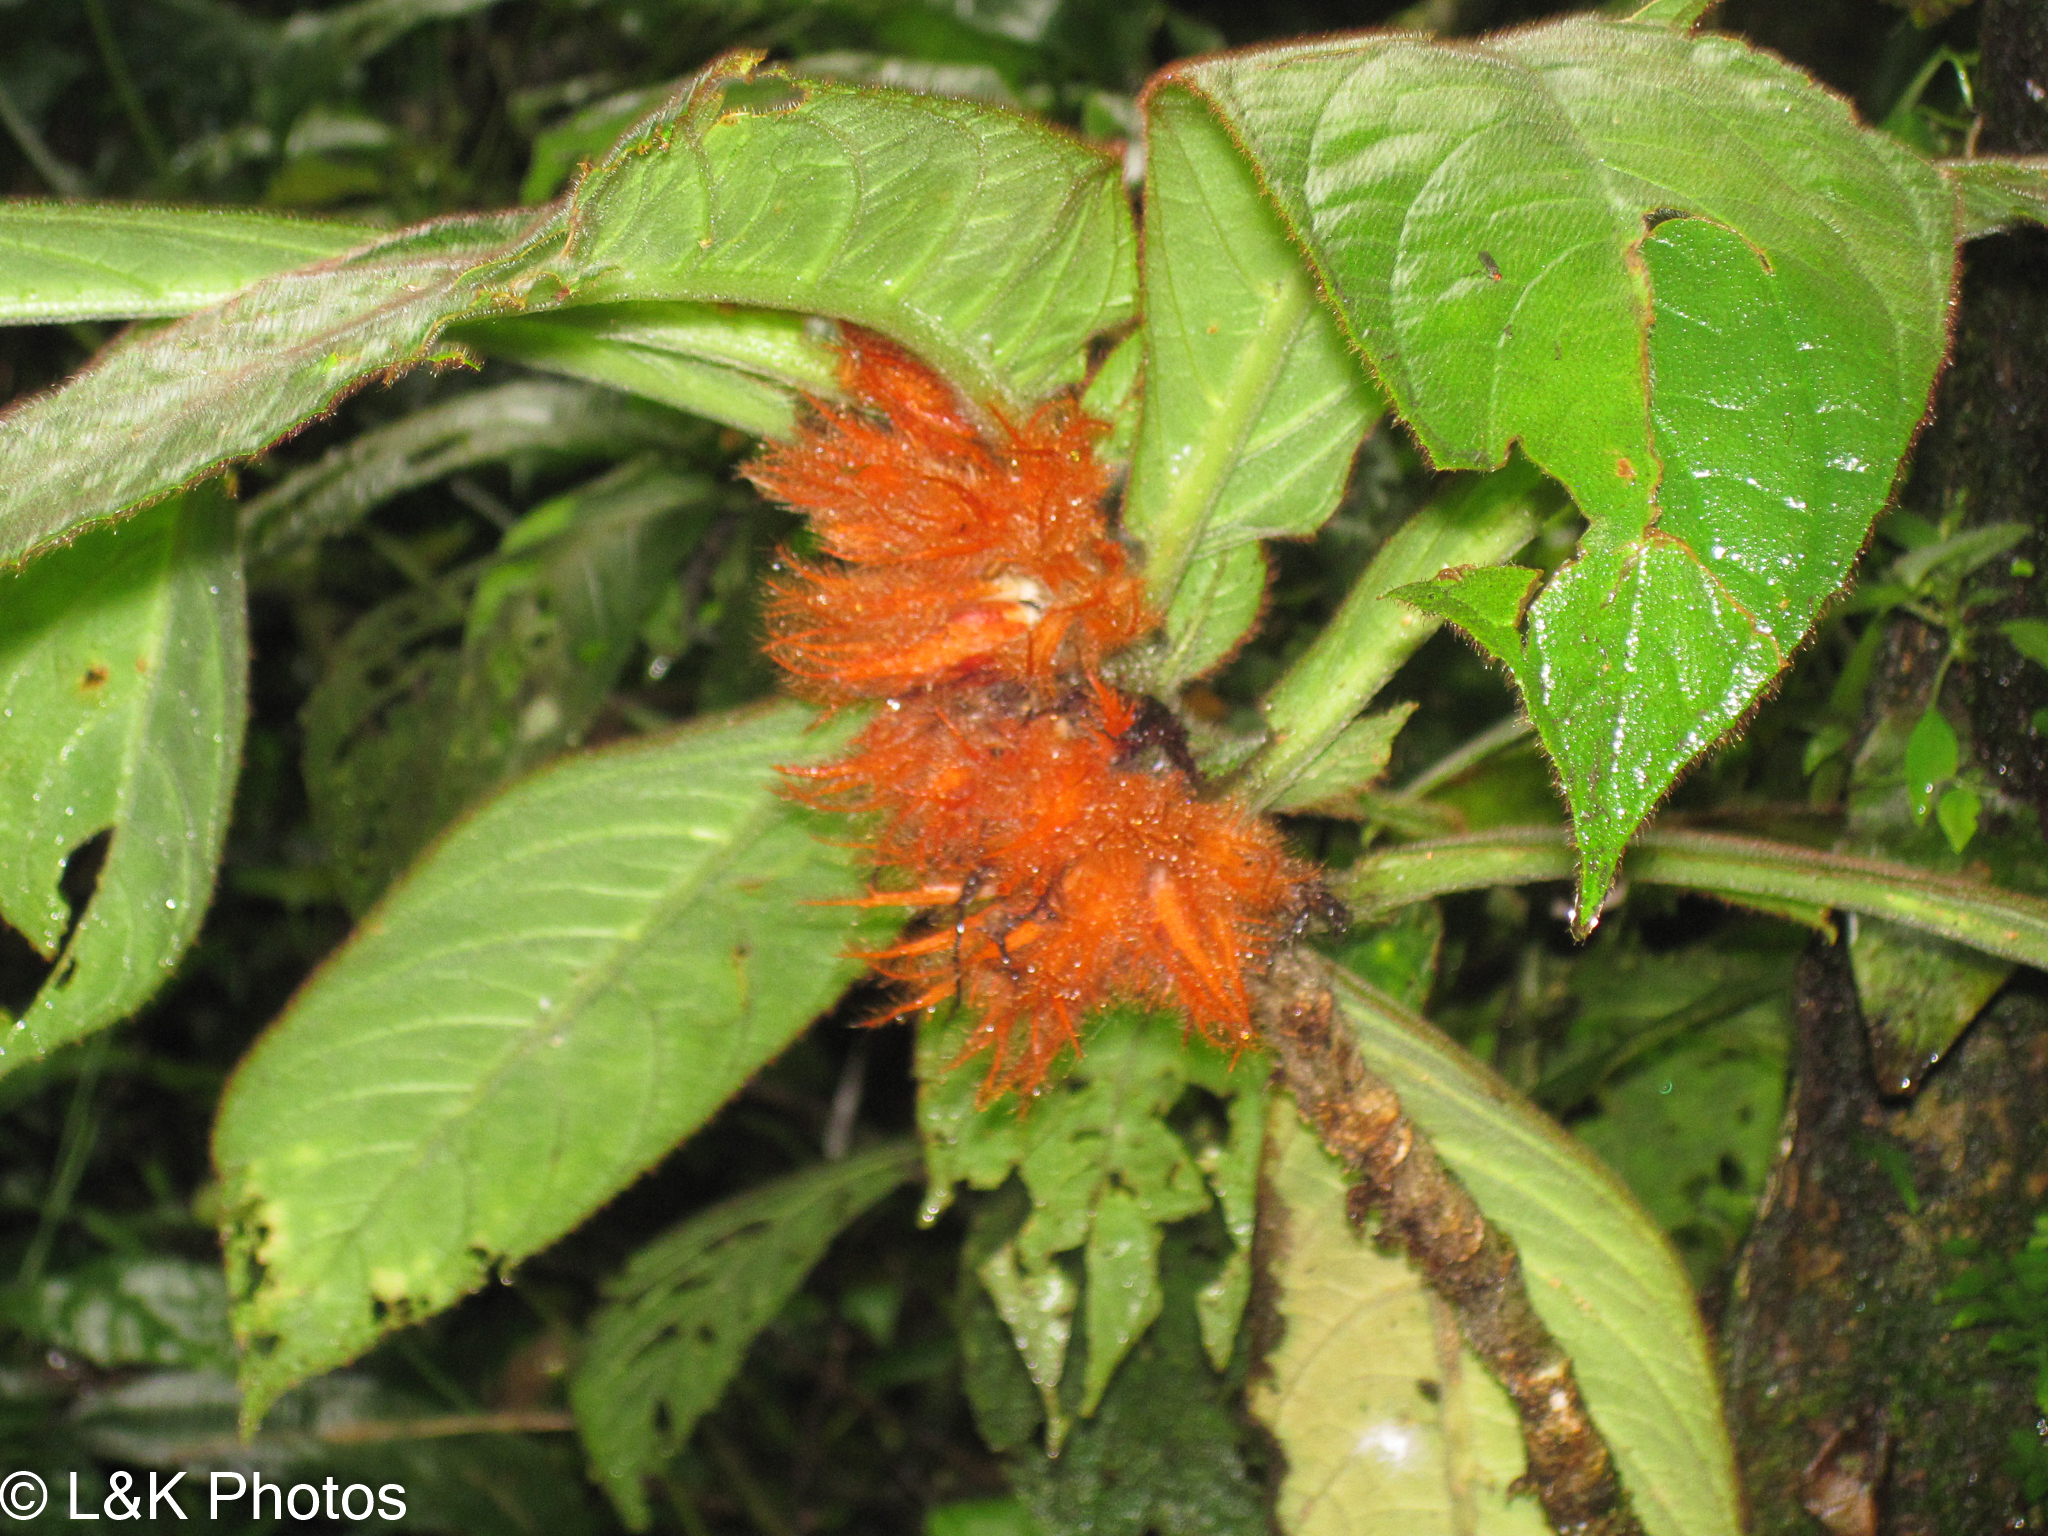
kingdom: Plantae
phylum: Tracheophyta
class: Magnoliopsida
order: Lamiales
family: Gesneriaceae
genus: Columnea
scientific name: Columnea purpurata
